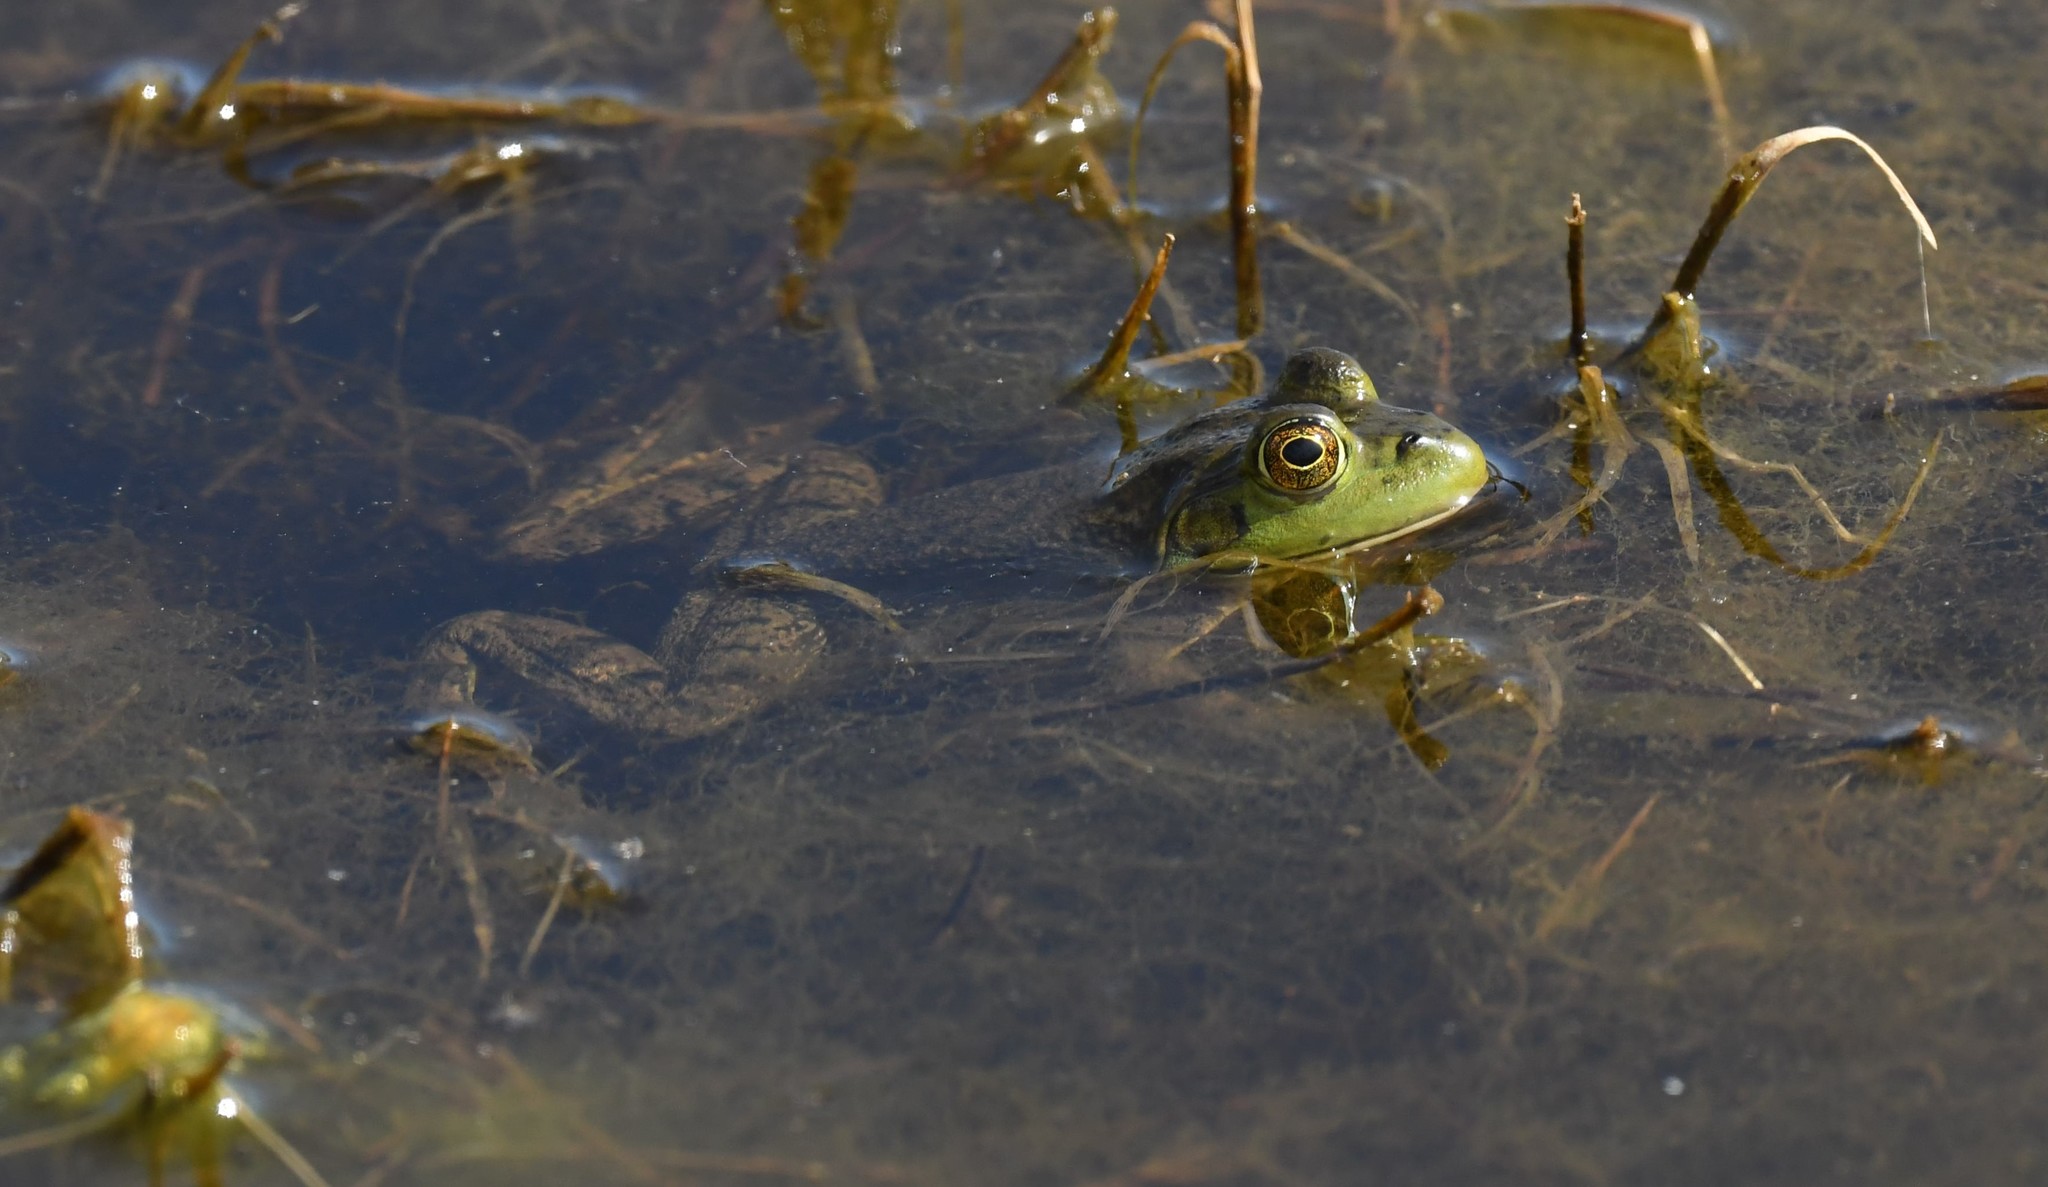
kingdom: Animalia
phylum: Chordata
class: Amphibia
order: Anura
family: Ranidae
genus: Lithobates
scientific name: Lithobates catesbeianus
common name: American bullfrog
